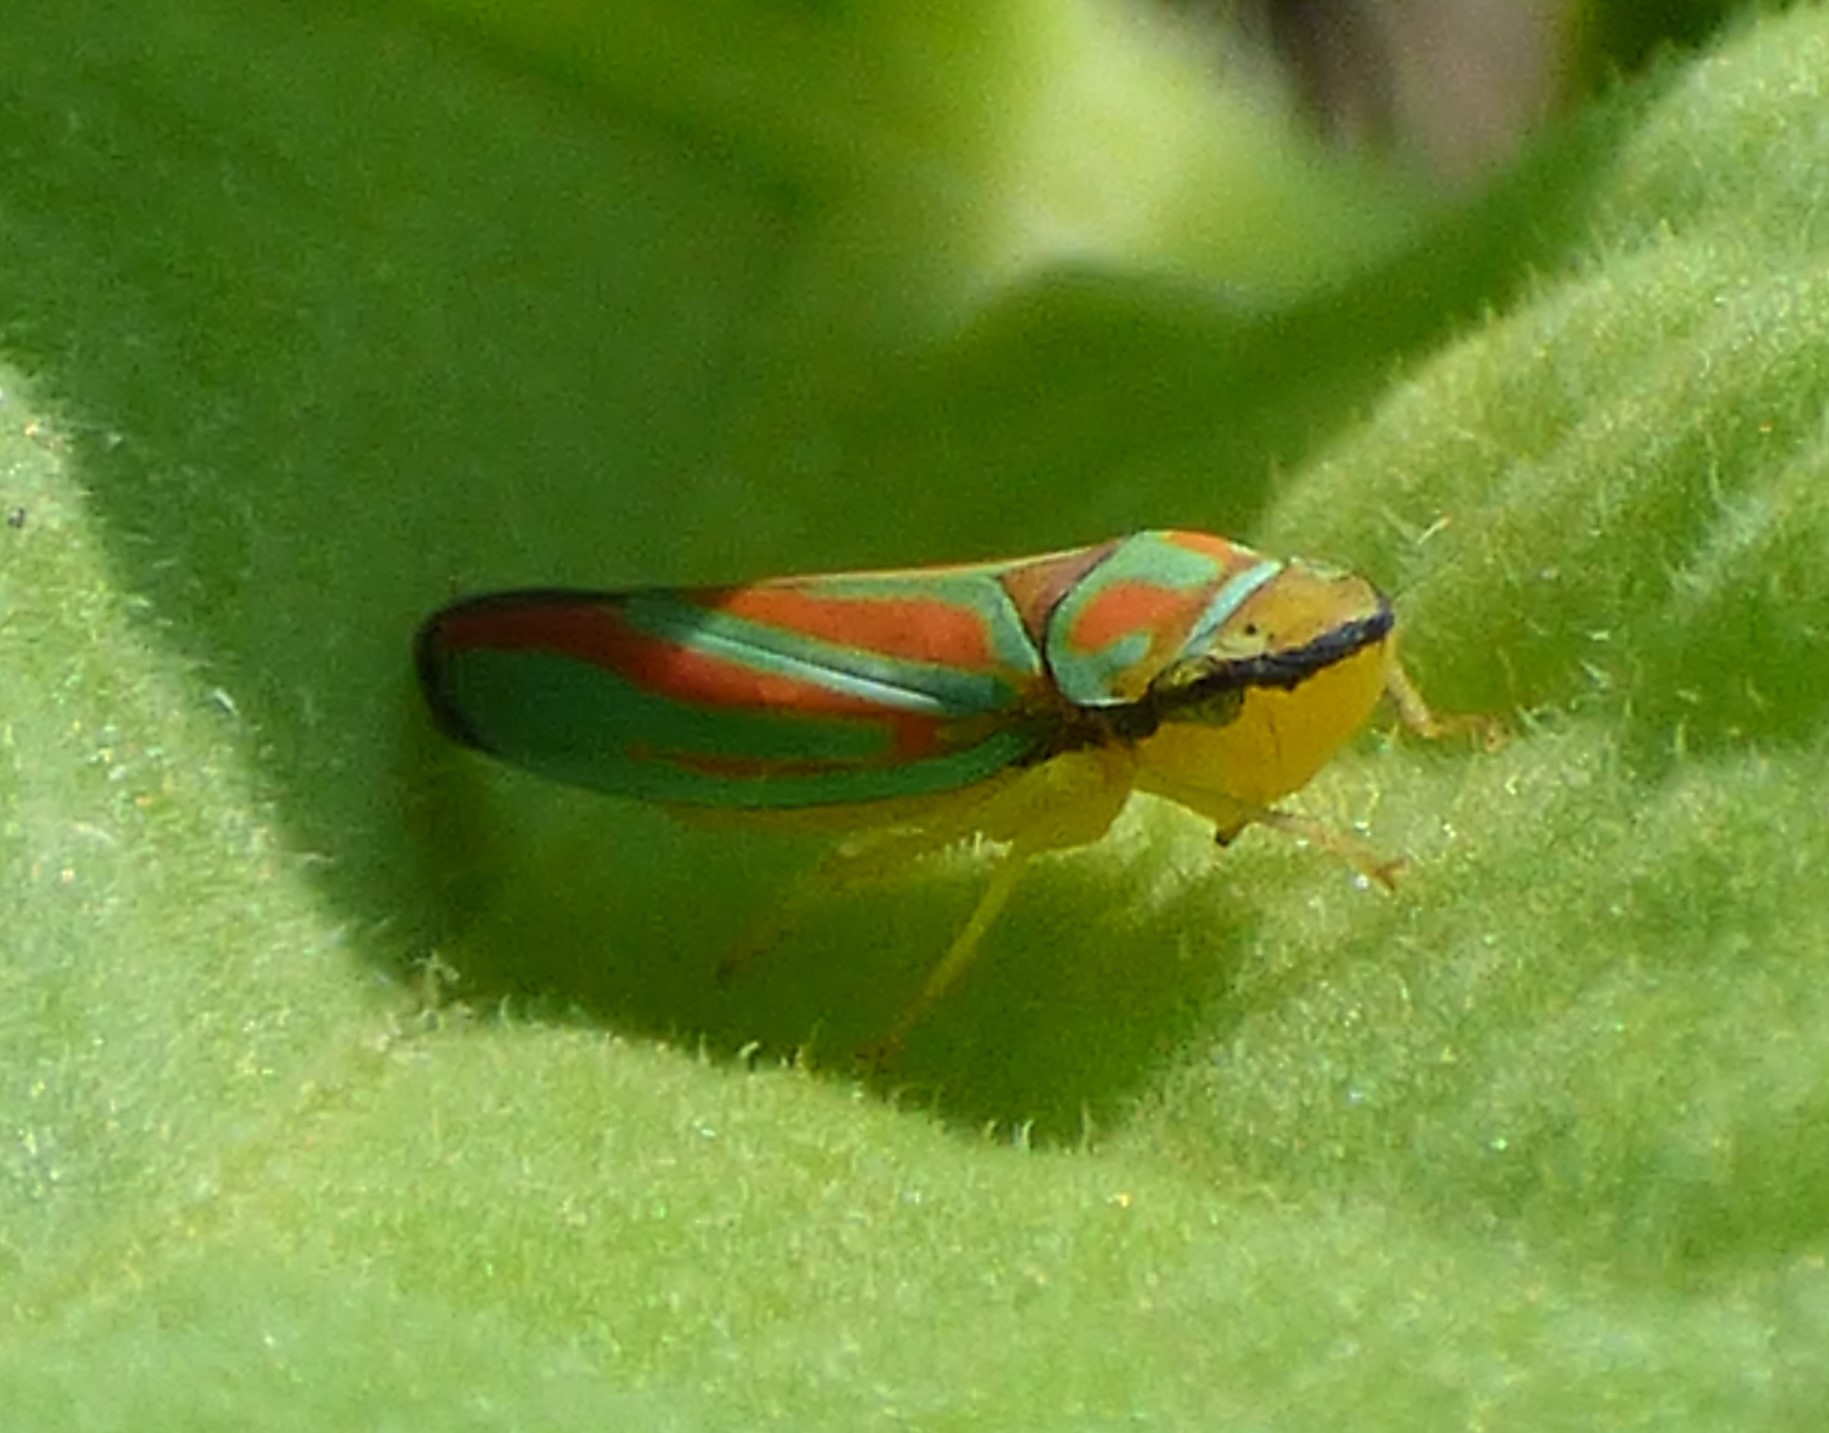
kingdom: Animalia
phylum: Arthropoda
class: Insecta
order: Hemiptera
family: Cicadellidae
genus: Graphocephala
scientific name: Graphocephala coccinea
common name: Candy-striped leafhopper
